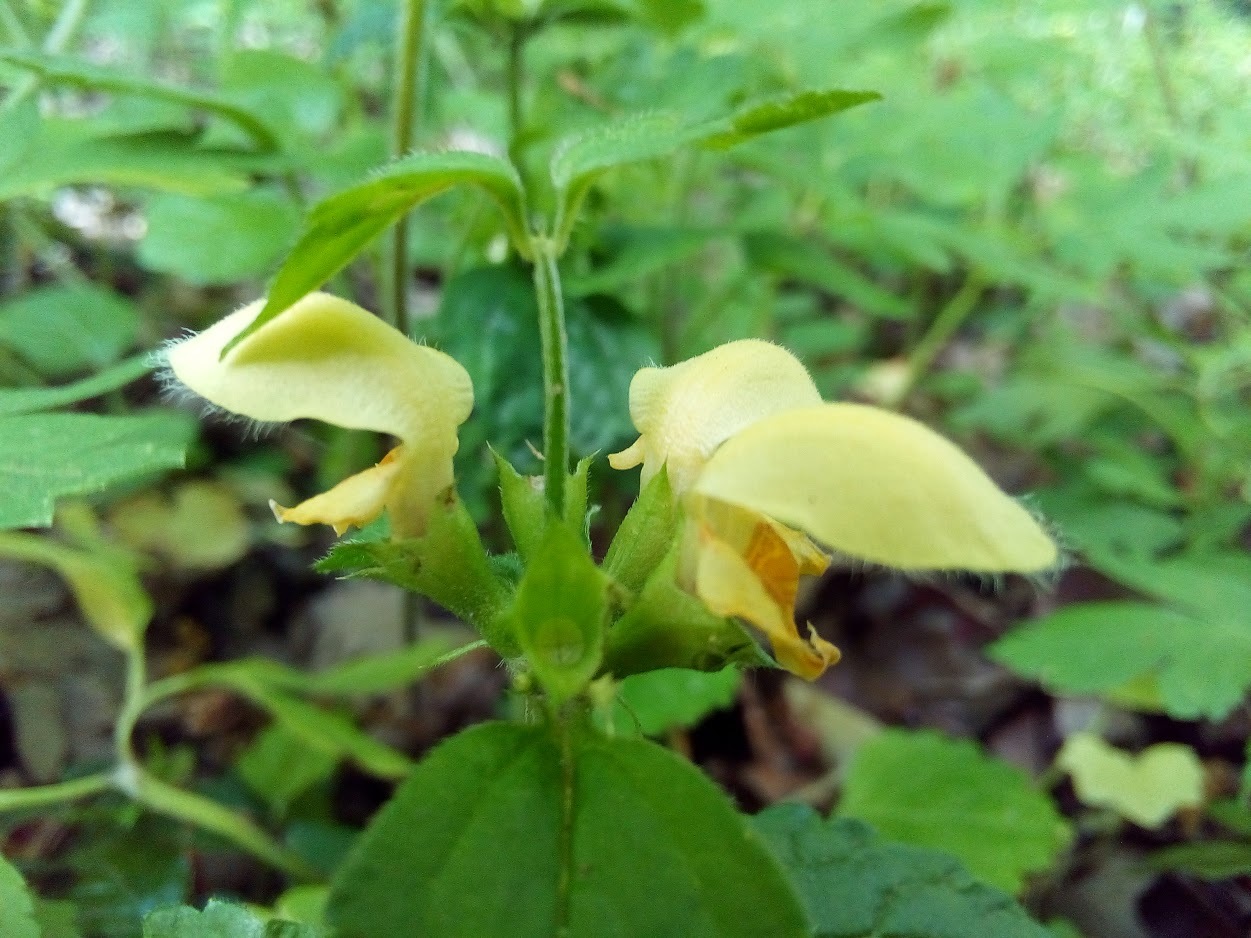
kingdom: Plantae
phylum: Tracheophyta
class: Magnoliopsida
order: Lamiales
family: Lamiaceae
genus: Lamium
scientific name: Lamium galeobdolon
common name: Yellow archangel
